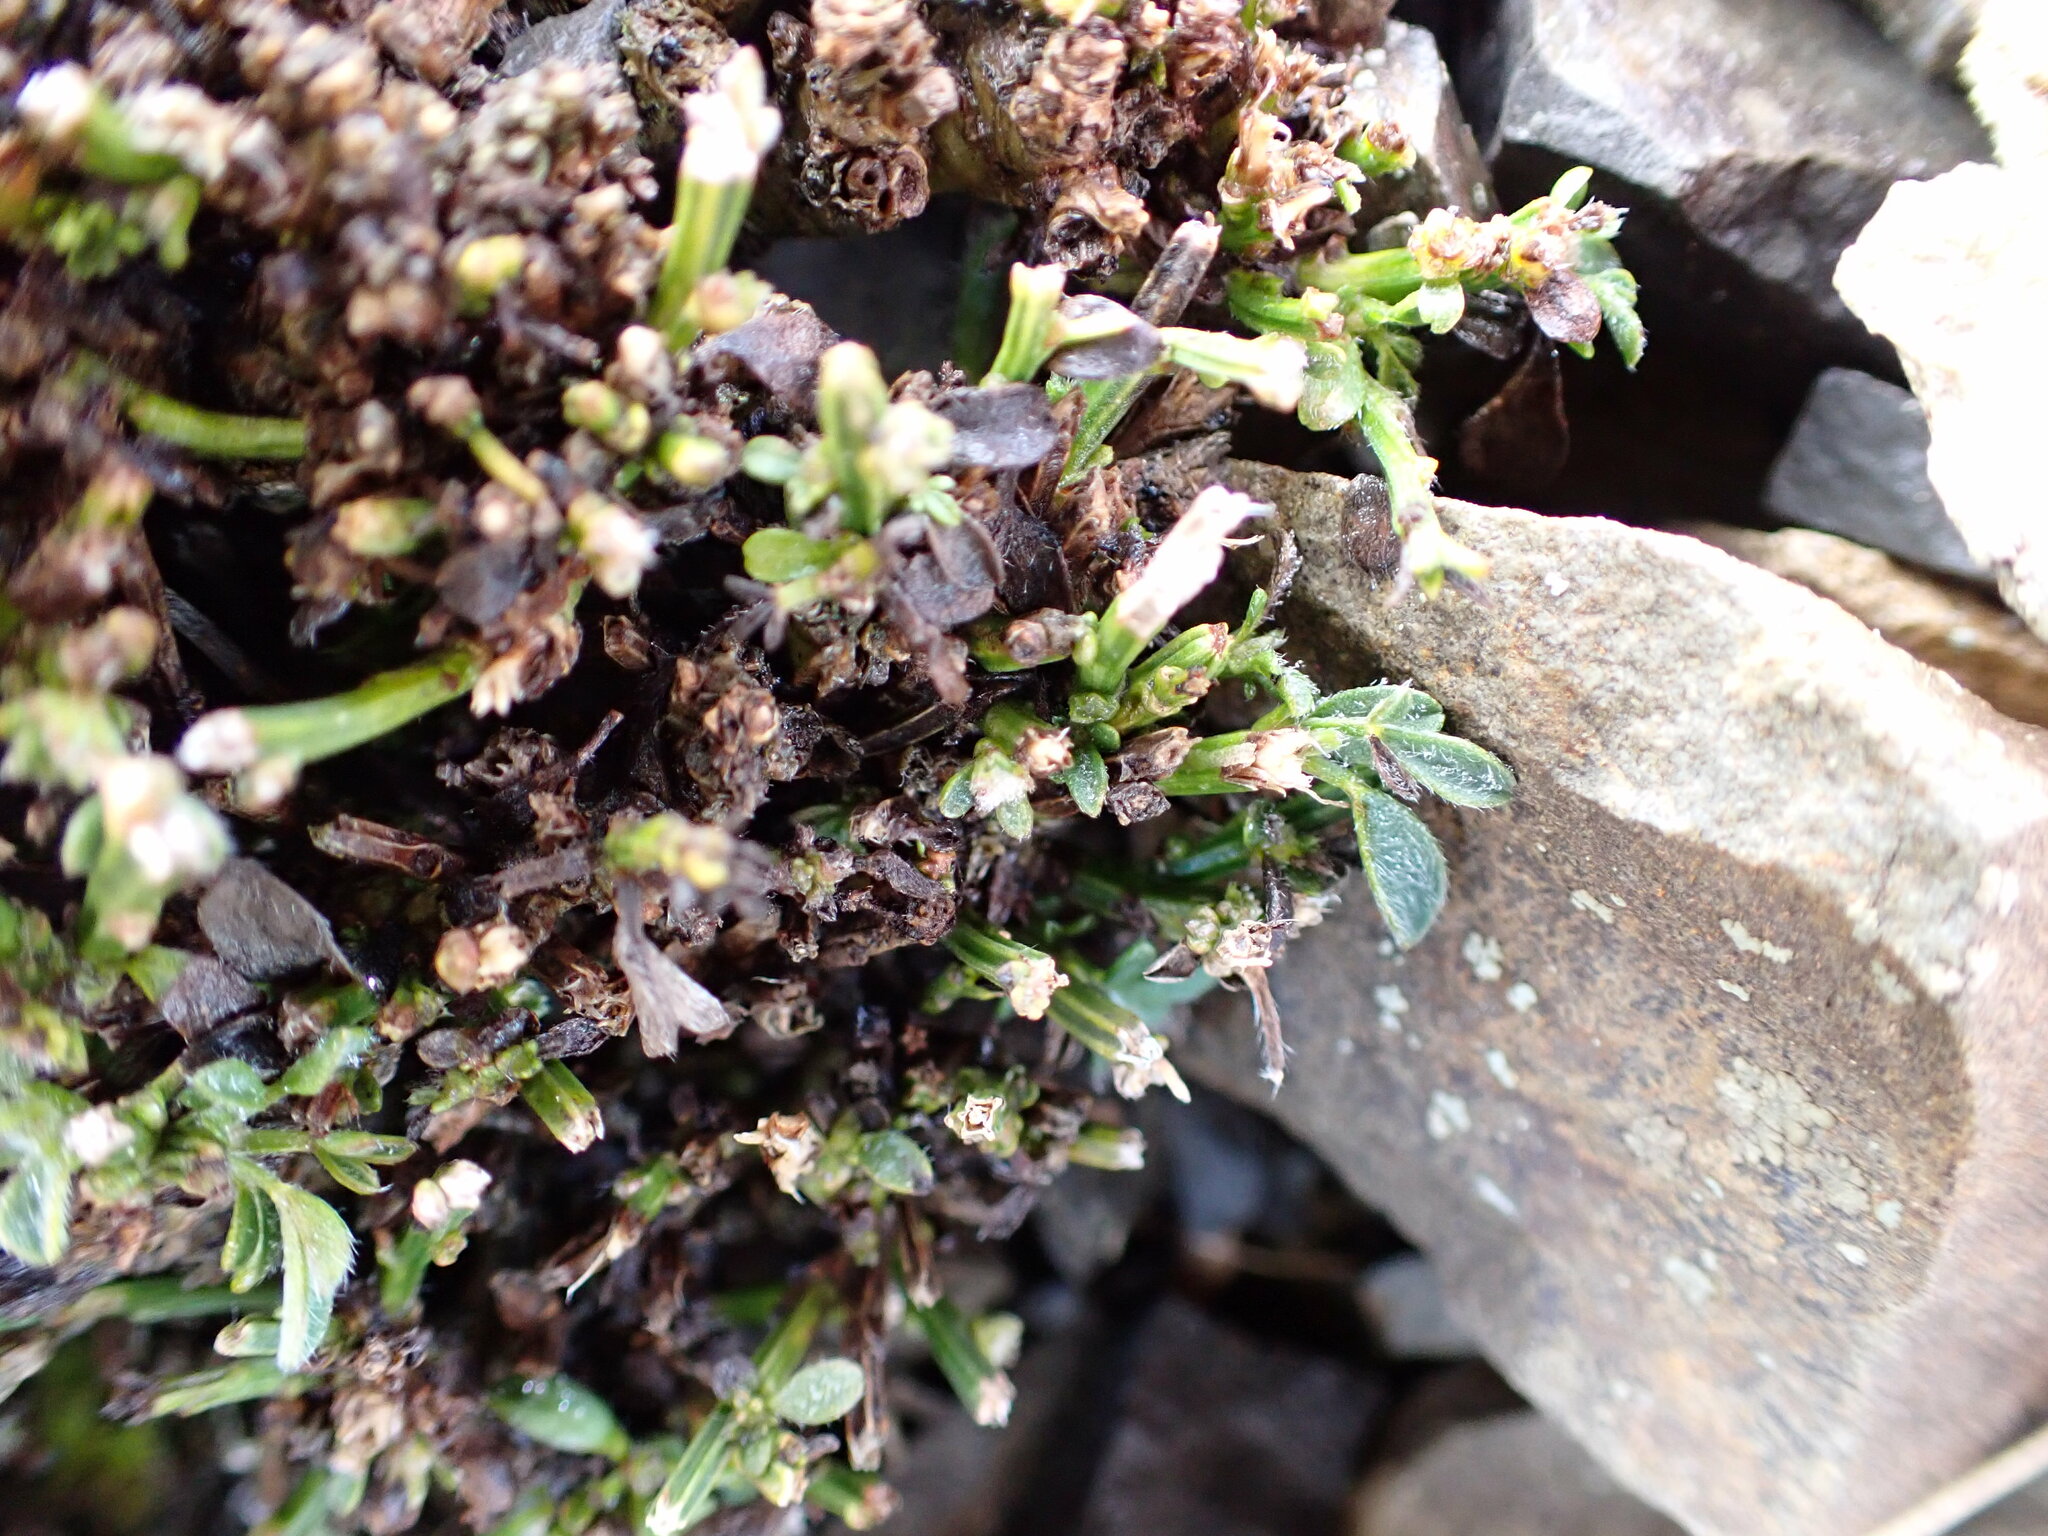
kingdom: Plantae
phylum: Tracheophyta
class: Magnoliopsida
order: Fabales
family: Fabaceae
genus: Cytisus
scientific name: Cytisus scoparius
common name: Scotch broom
